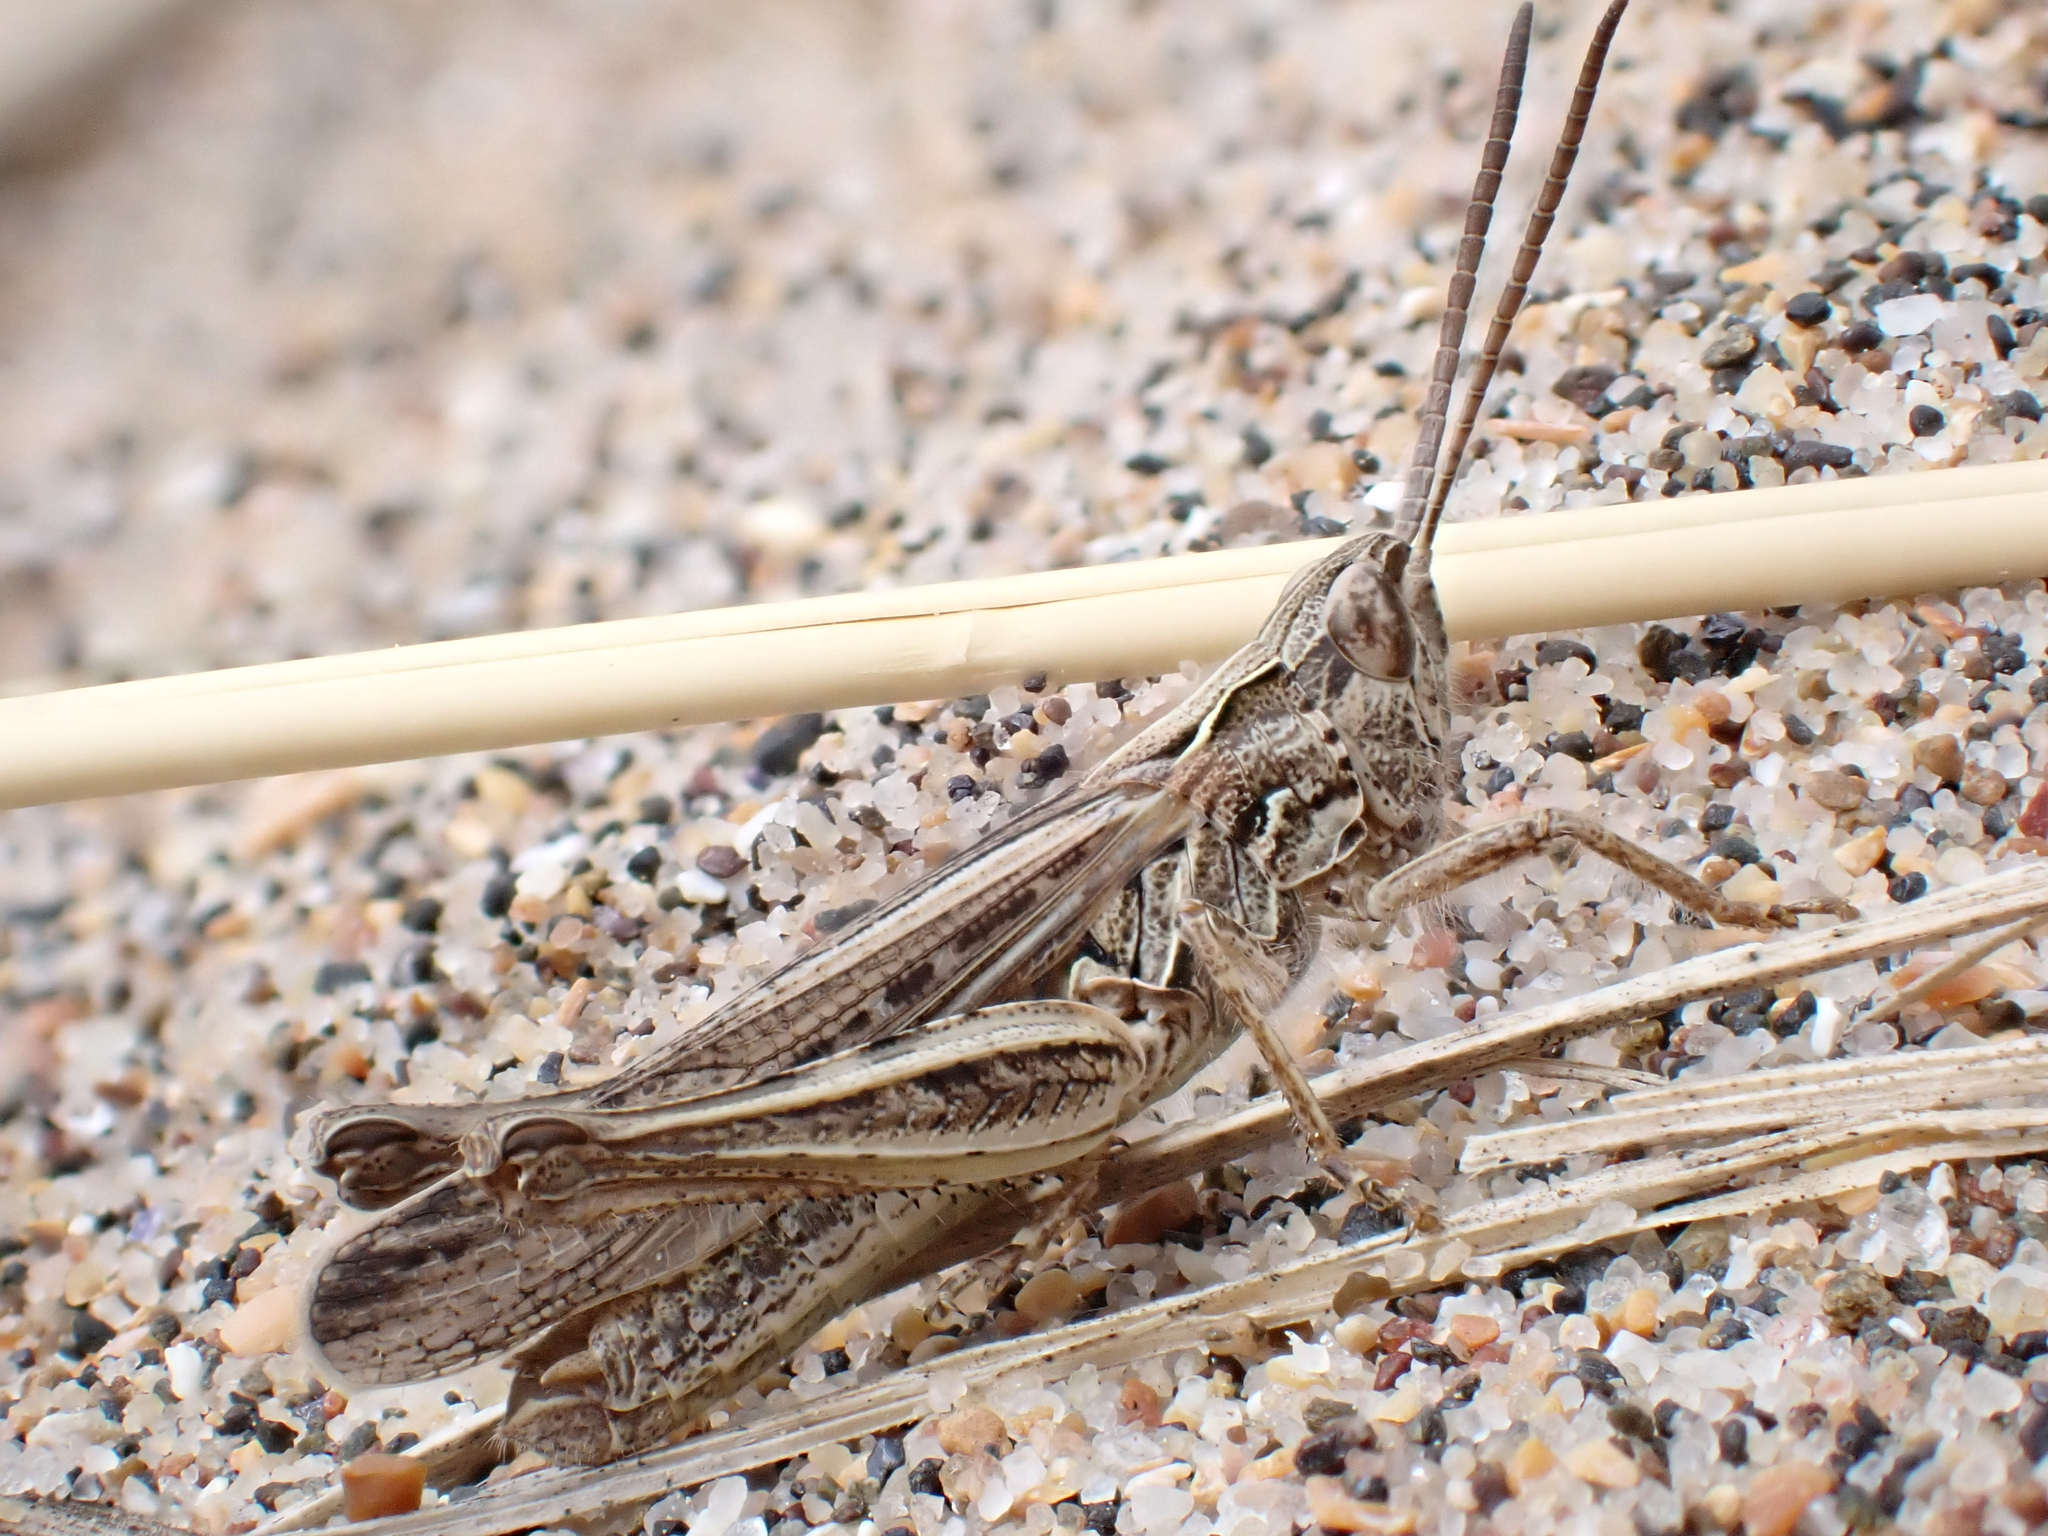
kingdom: Animalia
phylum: Arthropoda
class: Insecta
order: Orthoptera
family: Acrididae
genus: Chorthippus
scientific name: Chorthippus brunneus
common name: Field grasshopper
